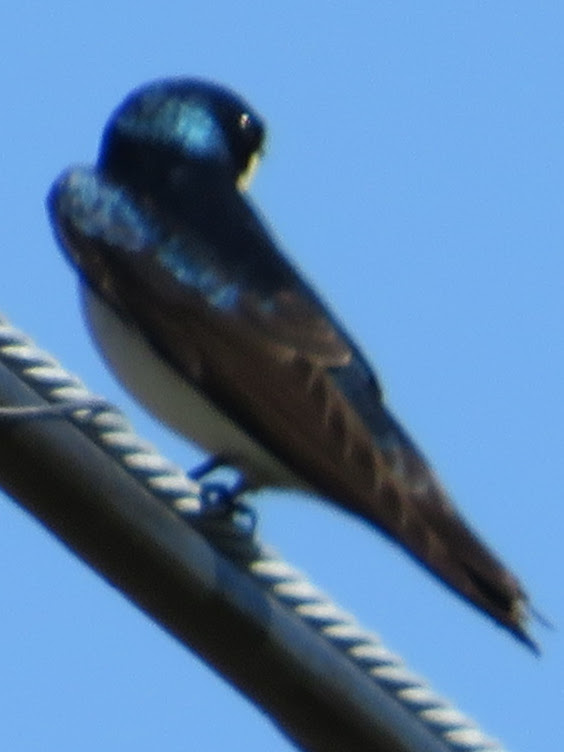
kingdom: Animalia
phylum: Chordata
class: Aves
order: Passeriformes
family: Hirundinidae
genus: Tachycineta
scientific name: Tachycineta bicolor
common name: Tree swallow
